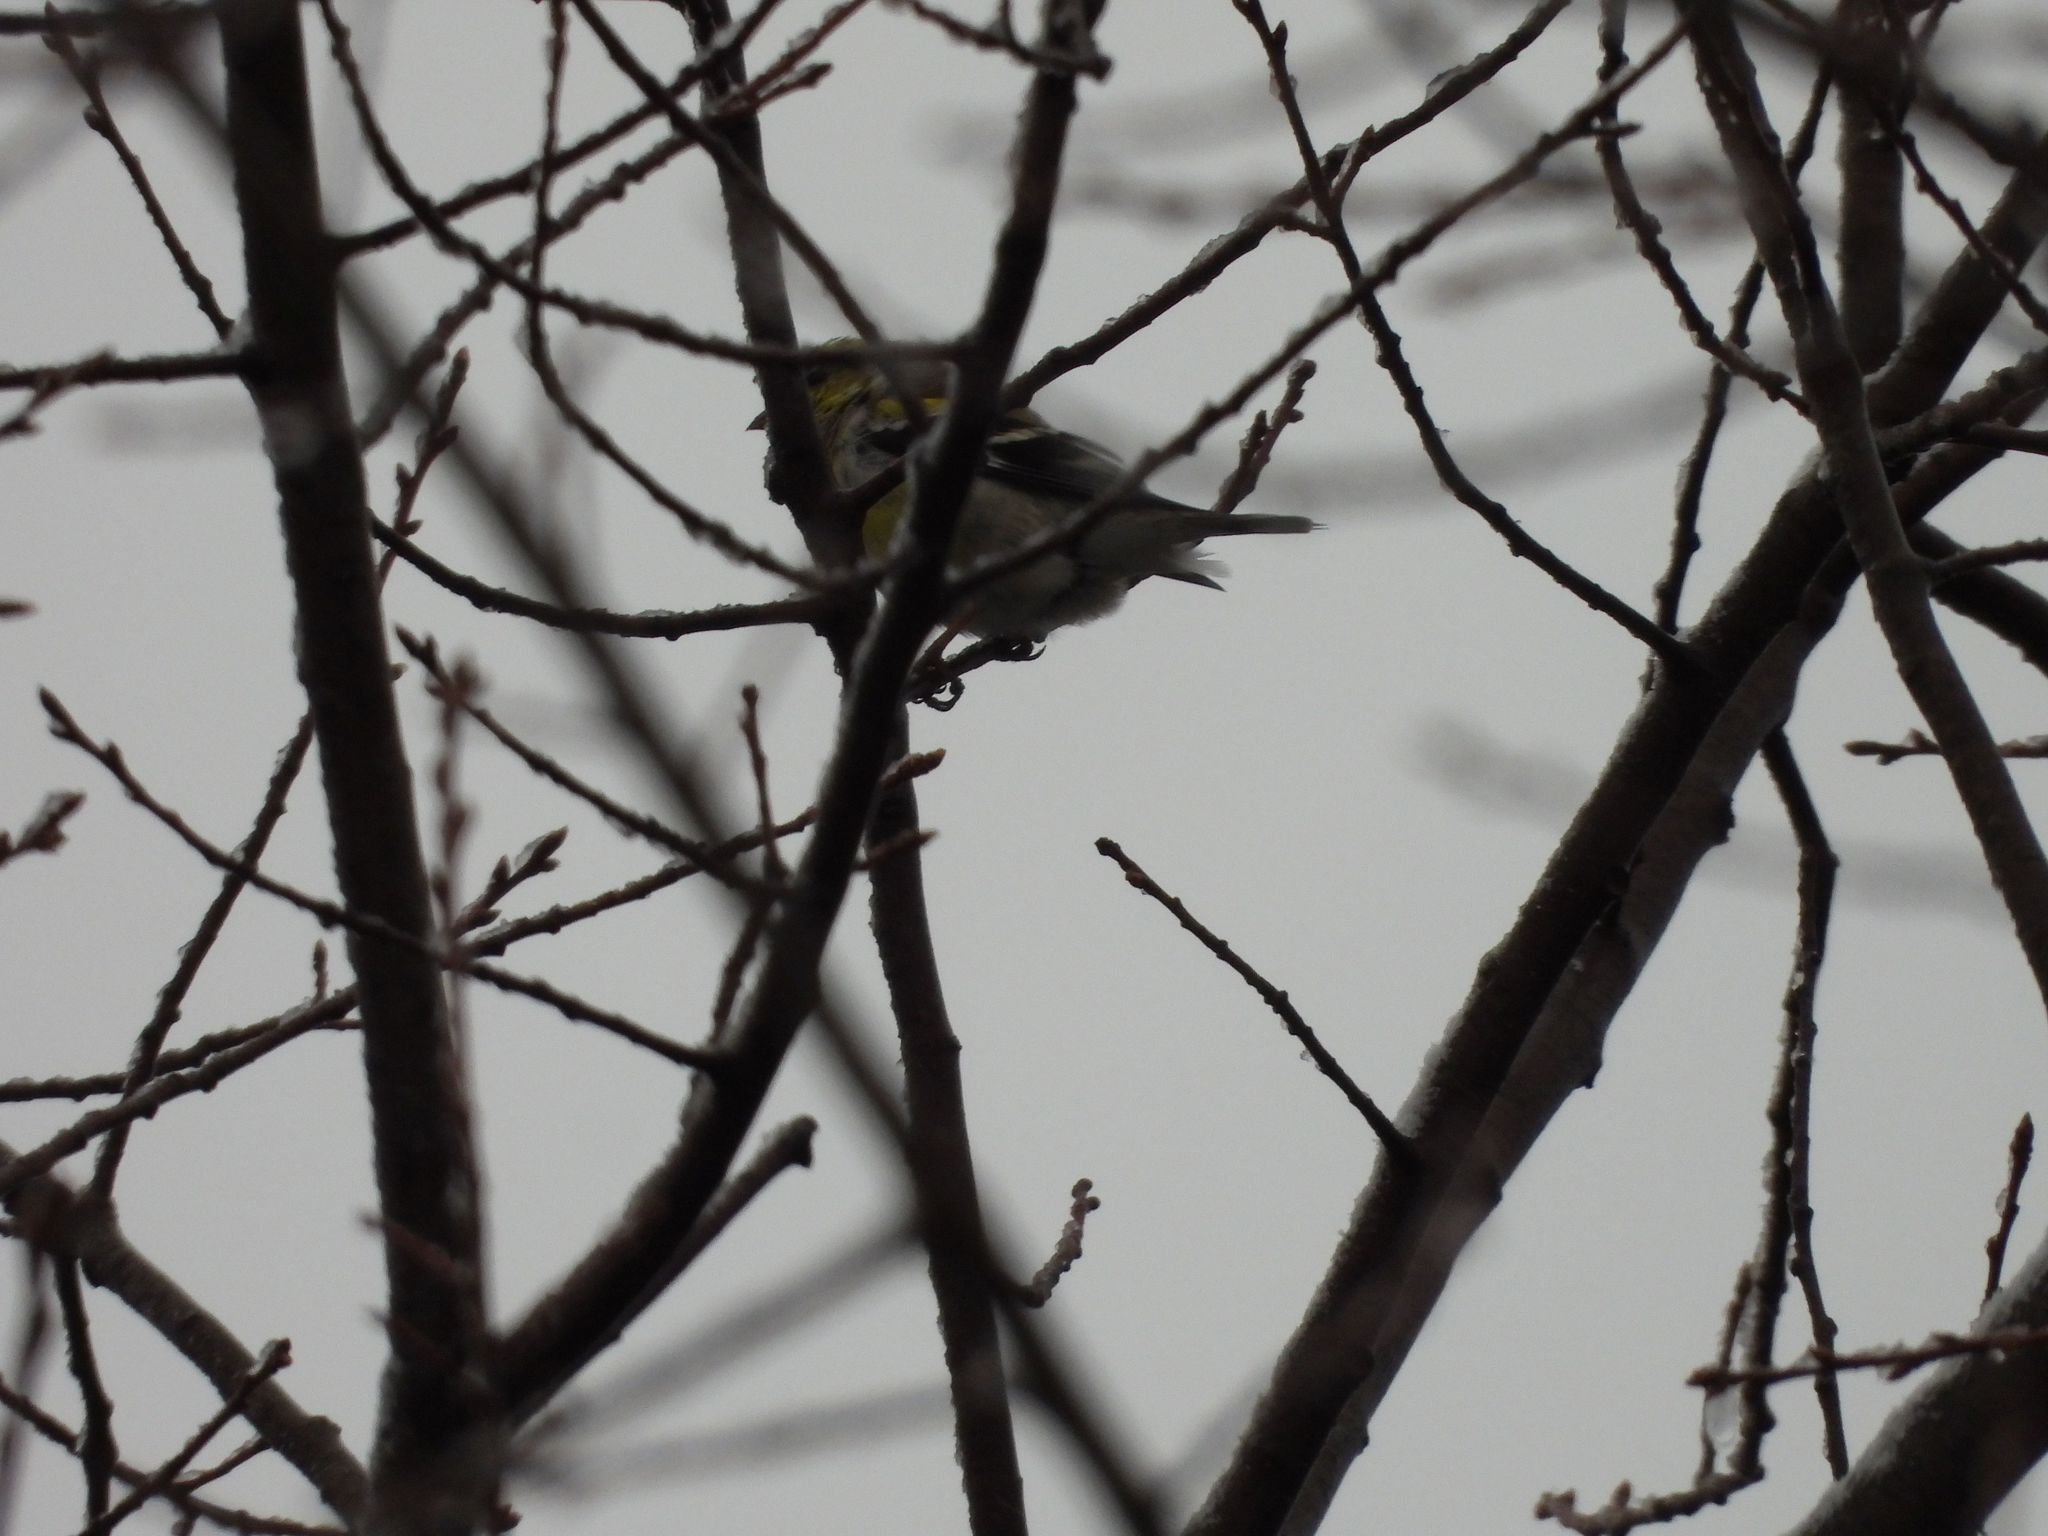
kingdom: Animalia
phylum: Chordata
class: Aves
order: Passeriformes
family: Fringillidae
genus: Spinus
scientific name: Spinus tristis
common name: American goldfinch
